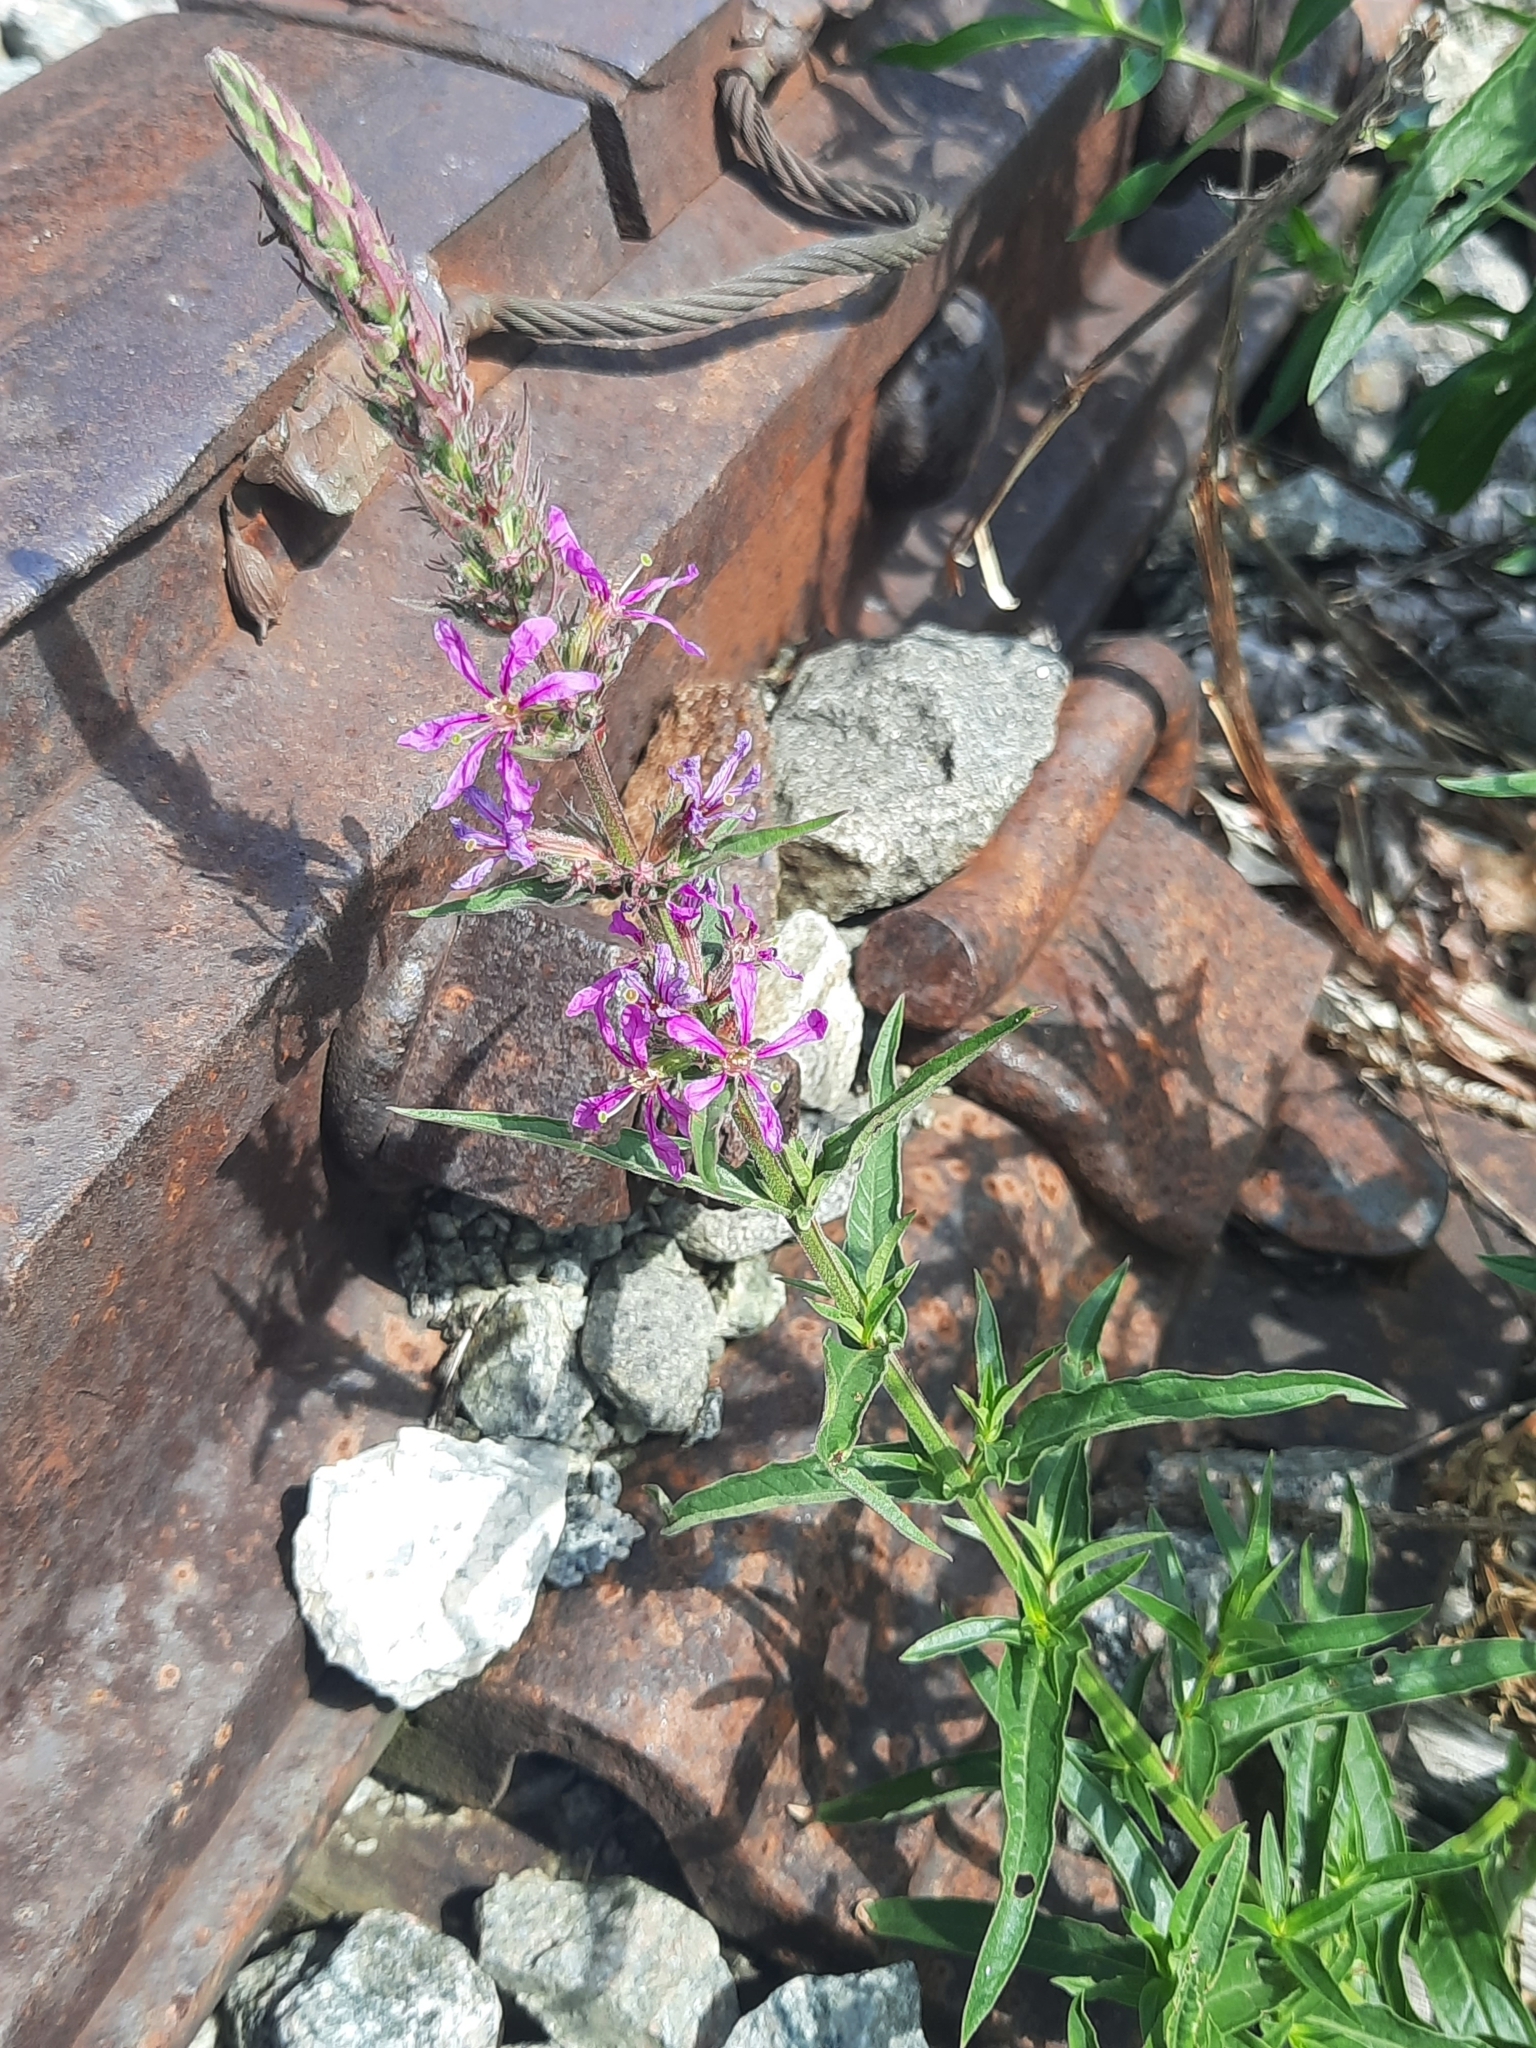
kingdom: Plantae
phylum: Tracheophyta
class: Magnoliopsida
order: Myrtales
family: Lythraceae
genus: Lythrum
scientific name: Lythrum salicaria
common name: Purple loosestrife
